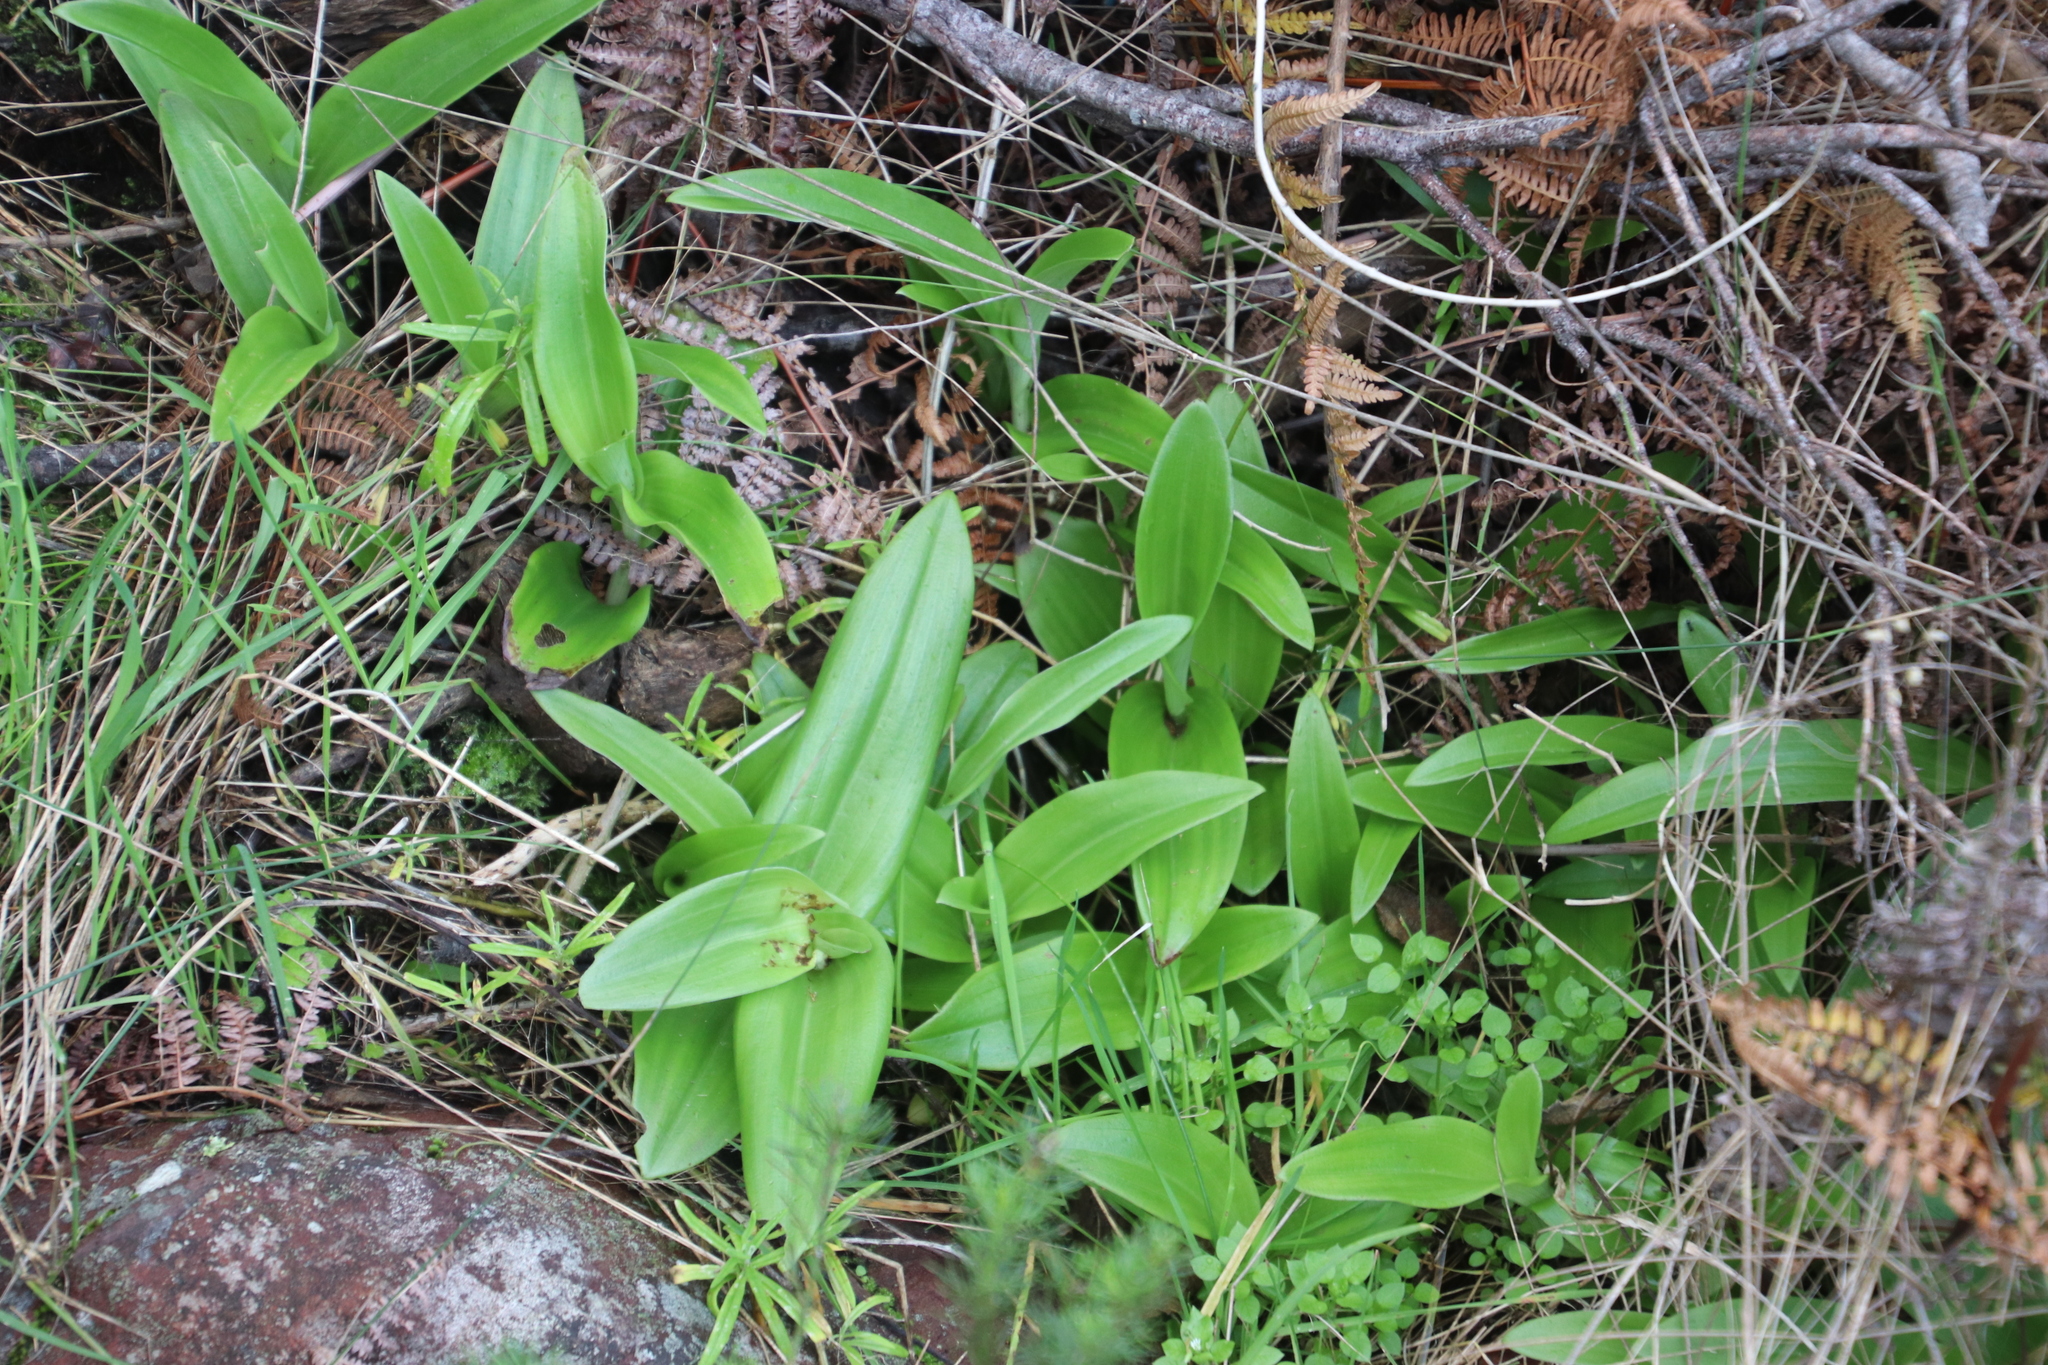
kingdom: Plantae
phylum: Tracheophyta
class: Liliopsida
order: Asparagales
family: Orchidaceae
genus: Satyrium
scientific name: Satyrium odorum
